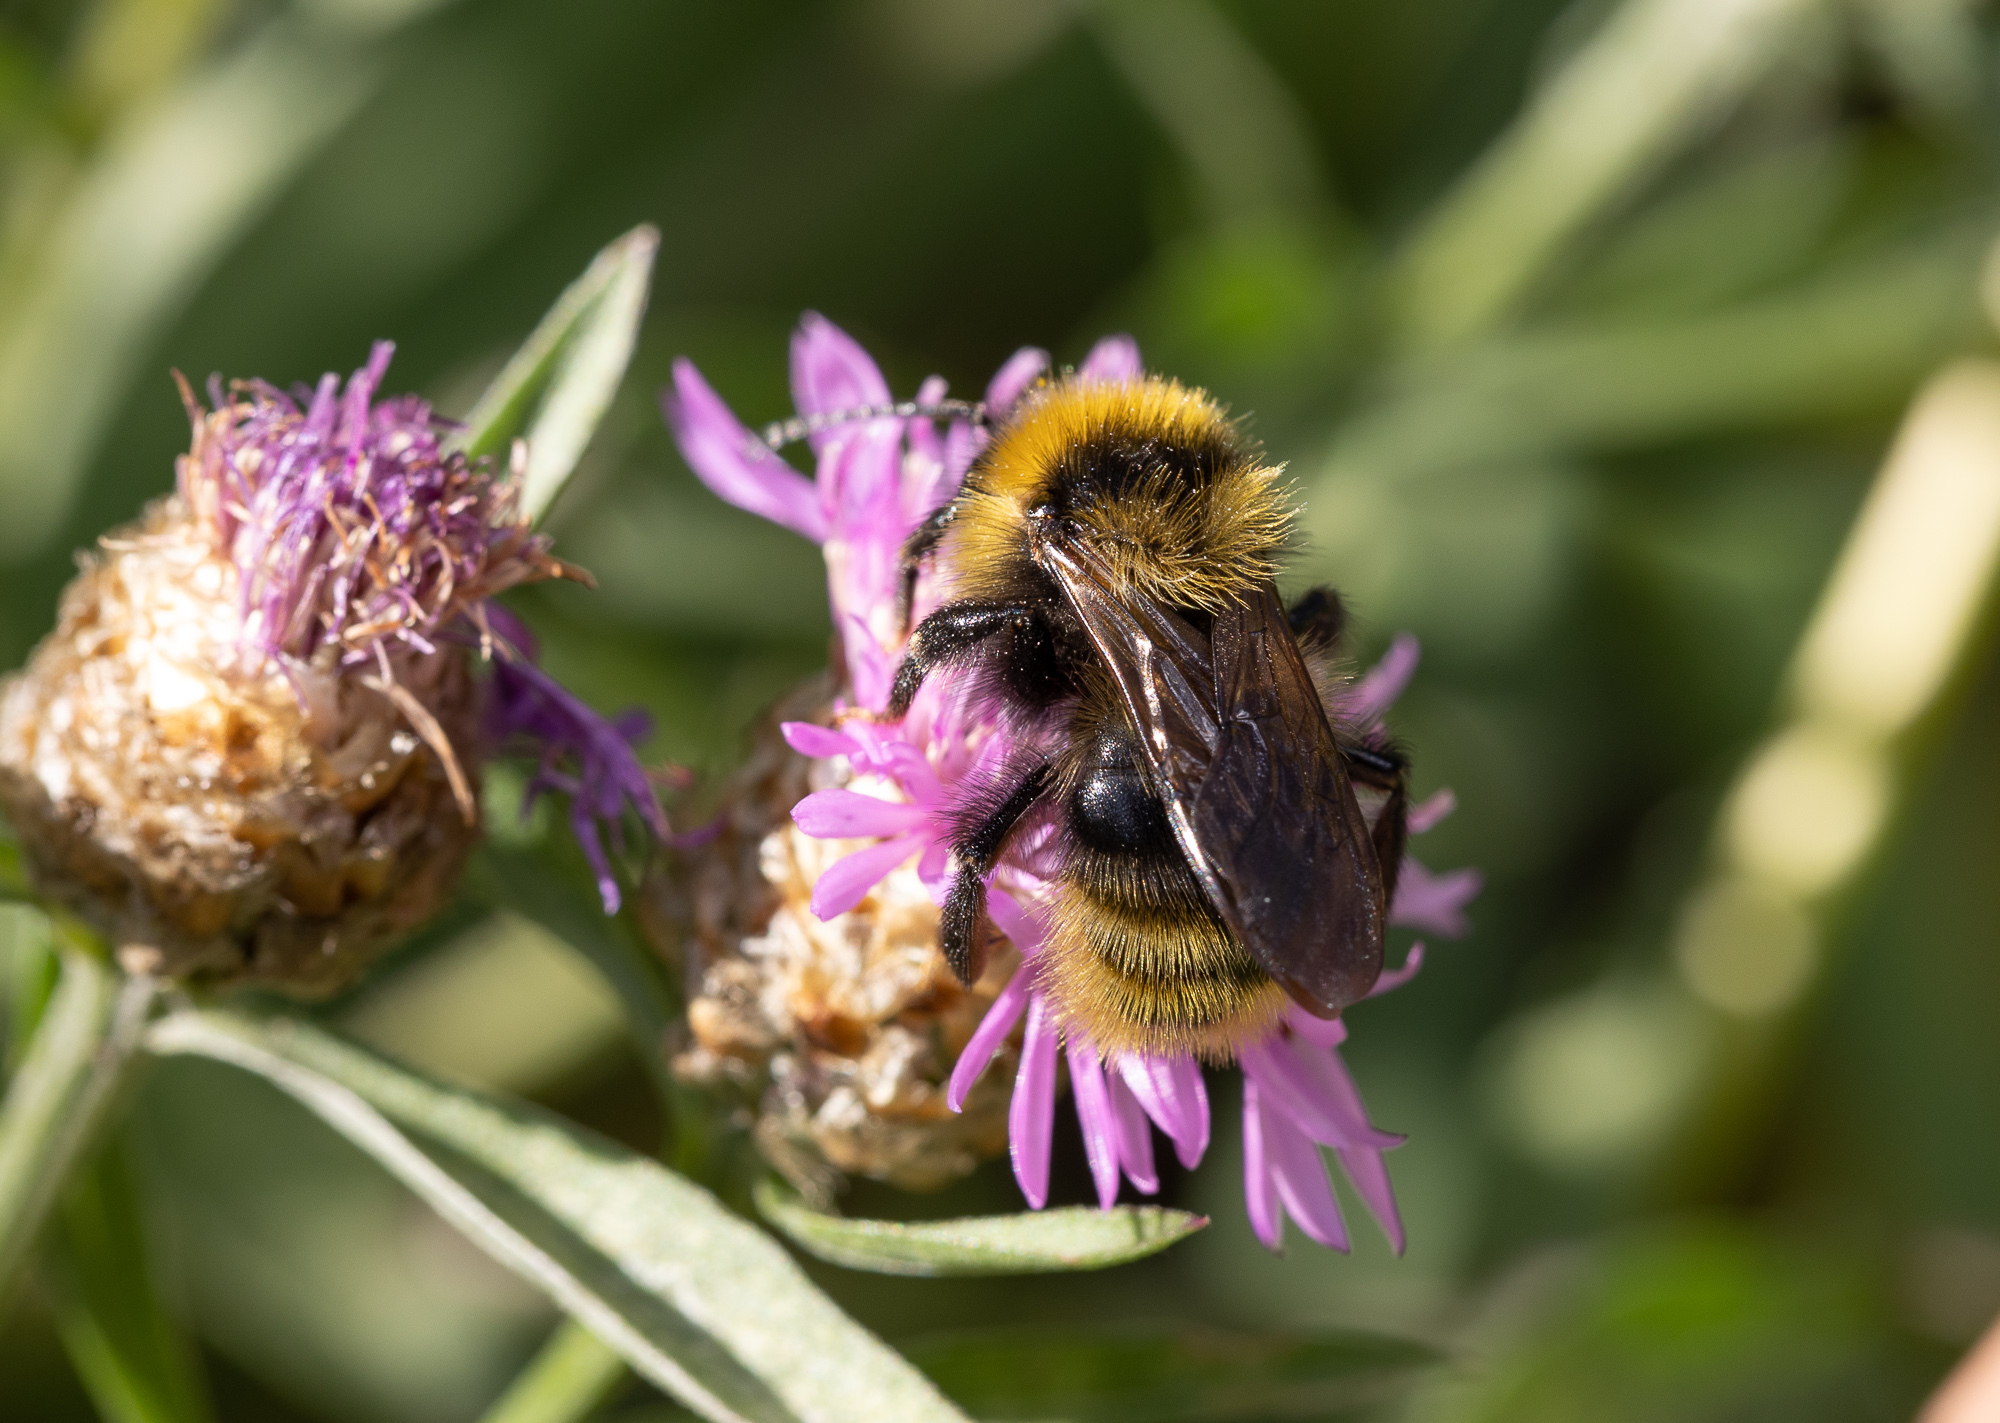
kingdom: Animalia
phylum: Arthropoda
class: Insecta
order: Hymenoptera
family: Apidae
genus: Bombus
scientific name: Bombus campestris
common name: Field cuckoo-bee
